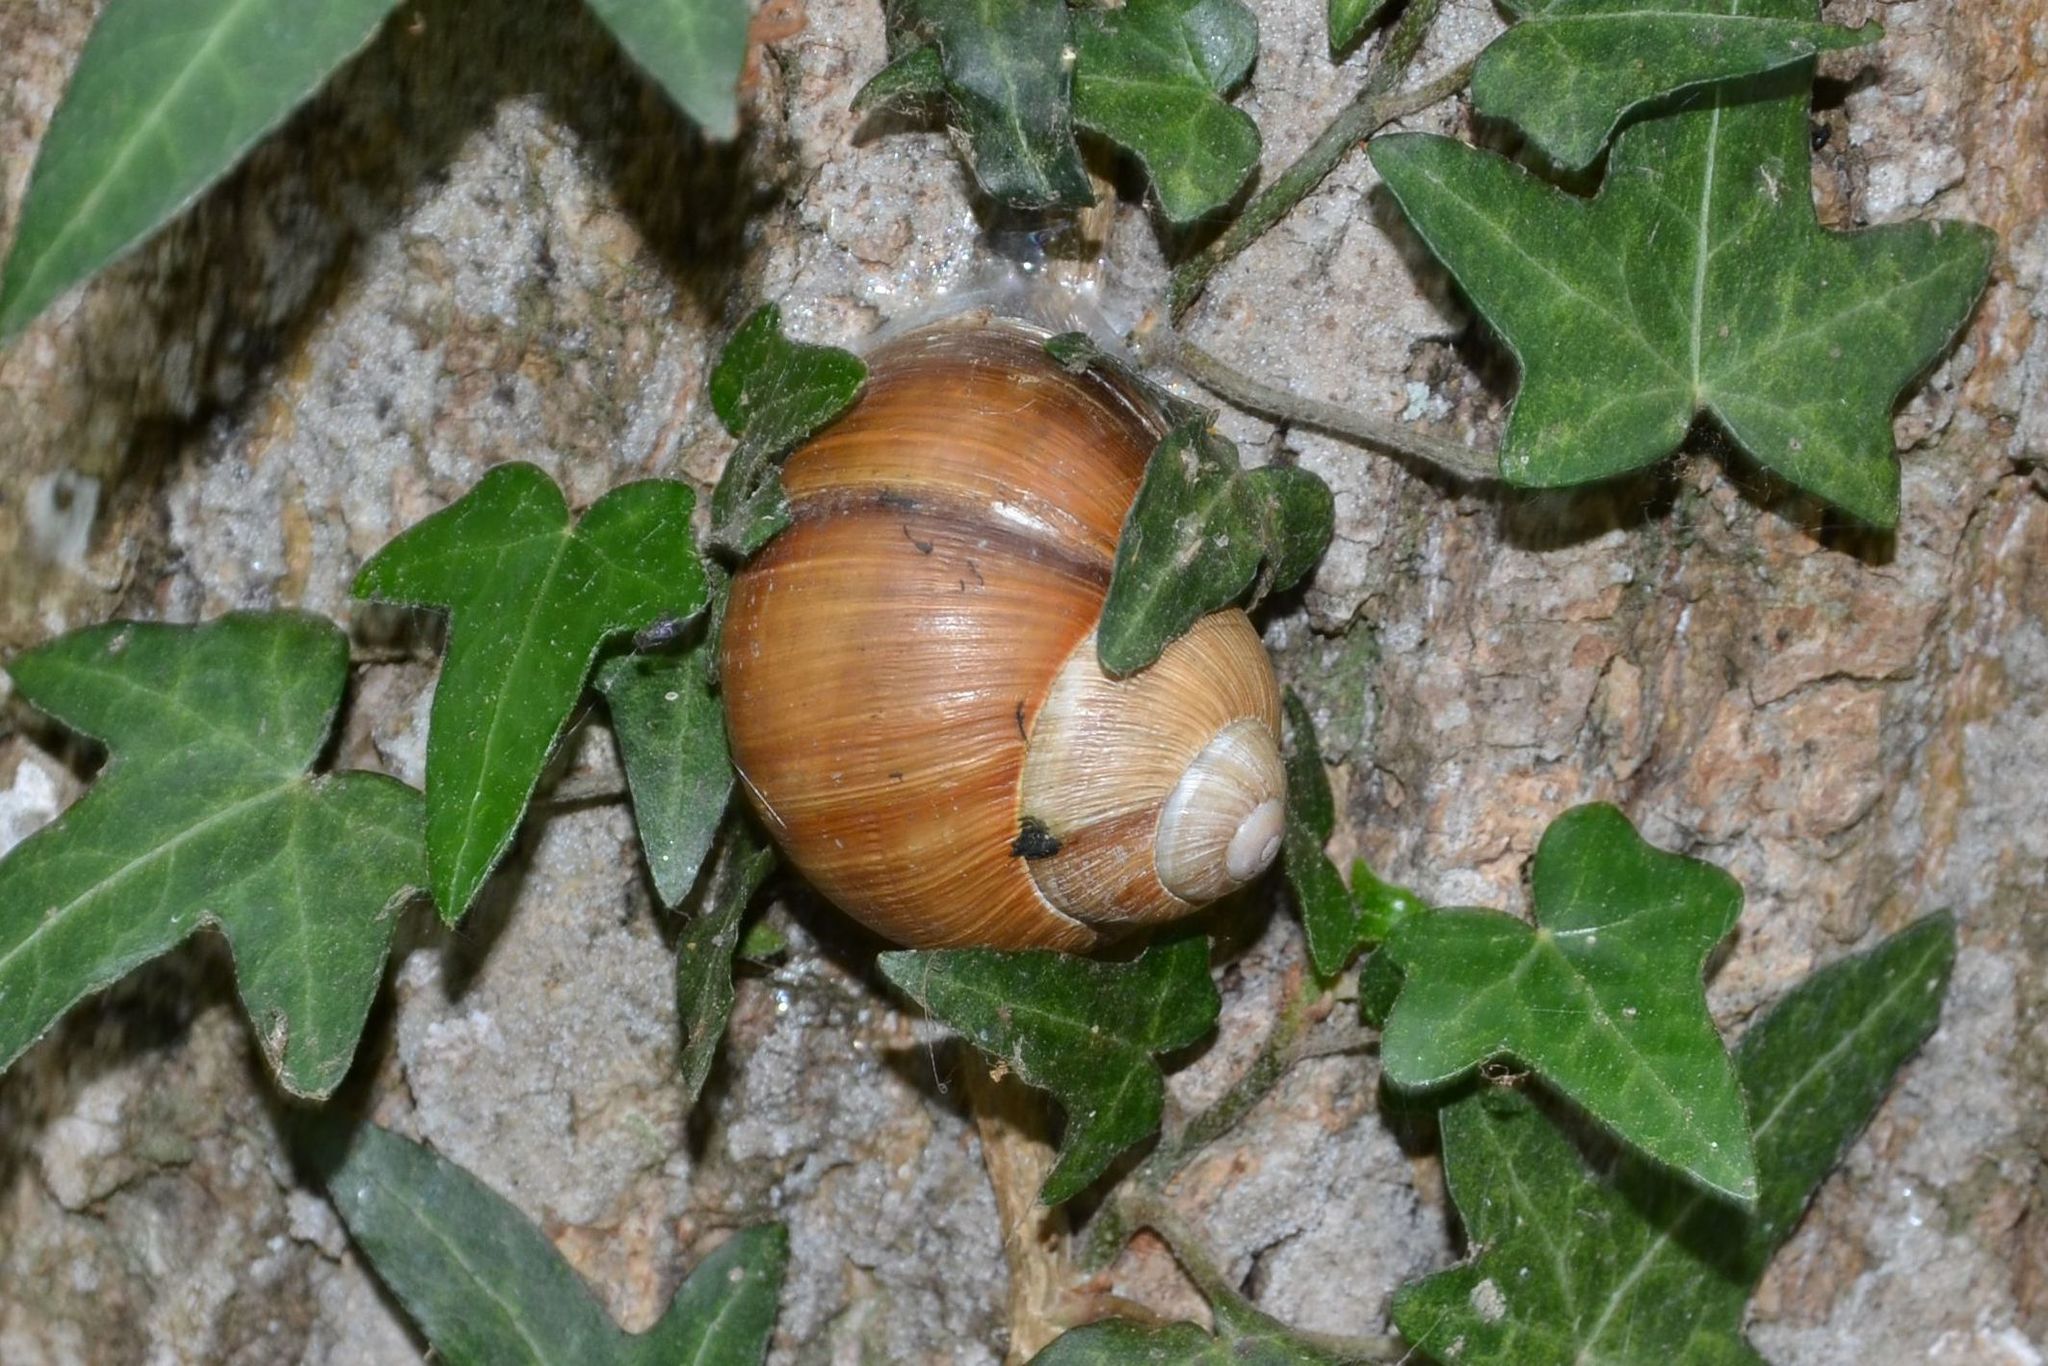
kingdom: Animalia
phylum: Mollusca
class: Gastropoda
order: Stylommatophora
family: Helicidae
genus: Helix
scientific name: Helix pomatia
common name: Roman snail
